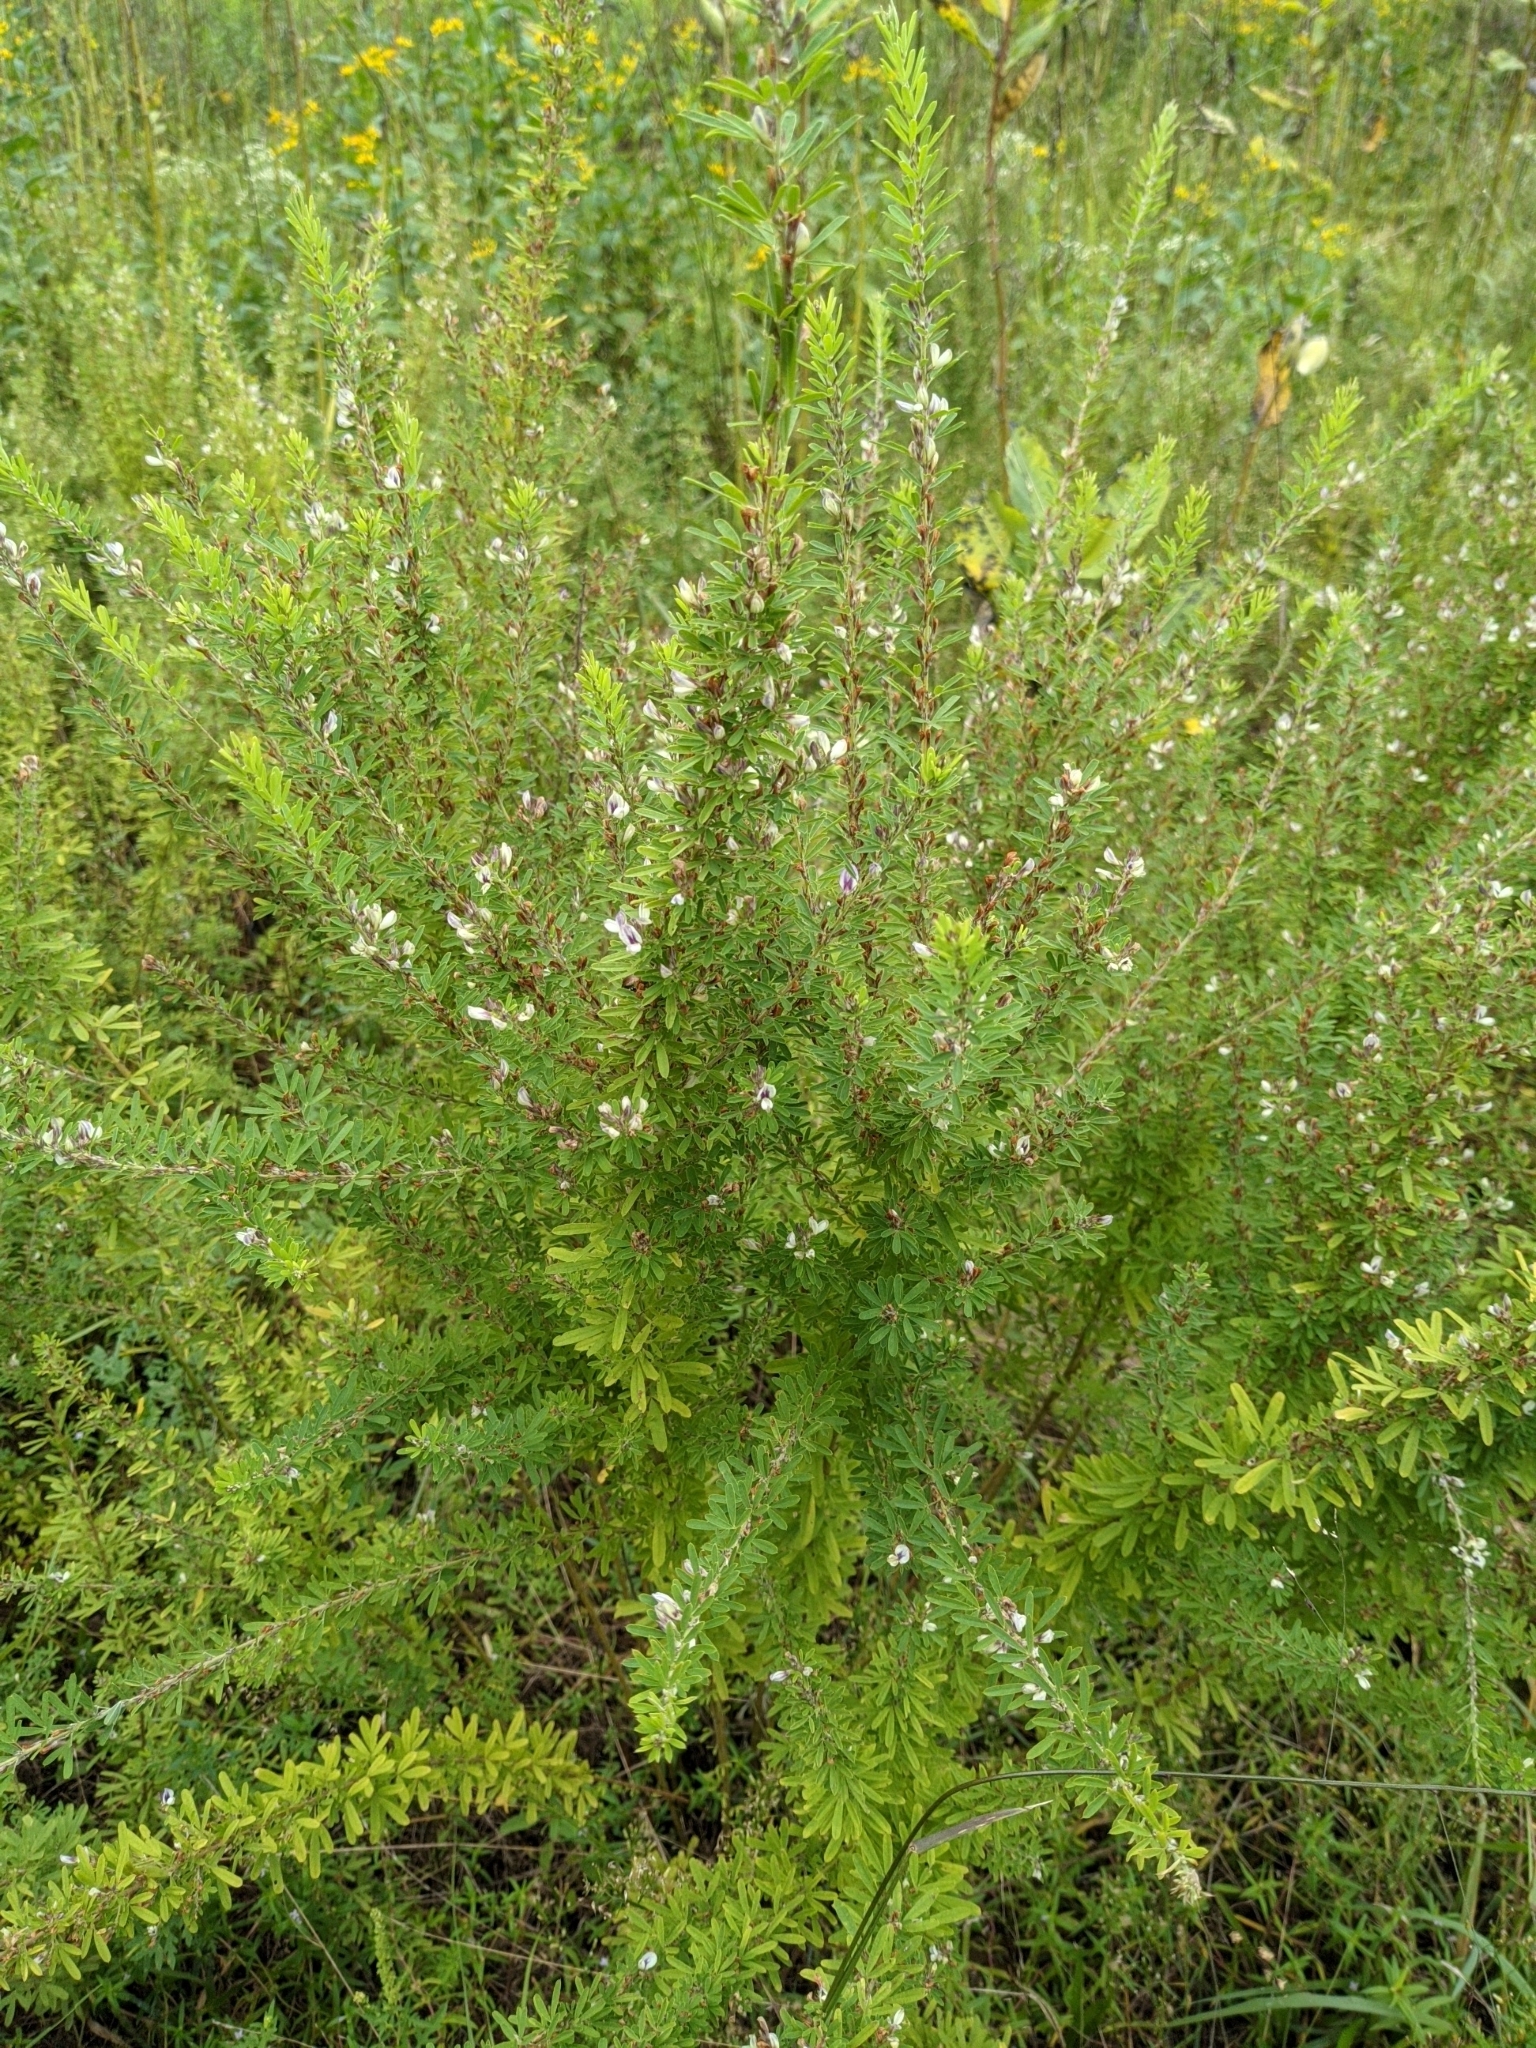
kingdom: Plantae
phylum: Tracheophyta
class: Magnoliopsida
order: Fabales
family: Fabaceae
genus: Lespedeza
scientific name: Lespedeza cuneata
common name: Chinese bush-clover
